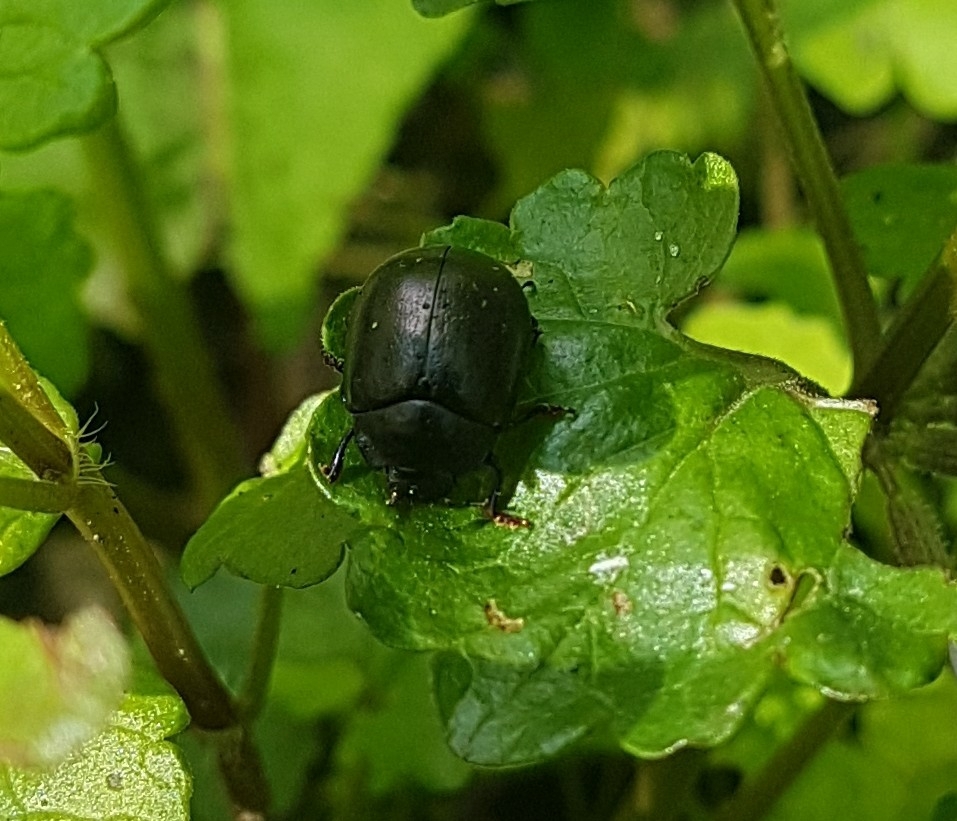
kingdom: Animalia
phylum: Arthropoda
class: Insecta
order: Coleoptera
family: Chrysomelidae
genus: Chrysolina
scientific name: Chrysolina sturmi
